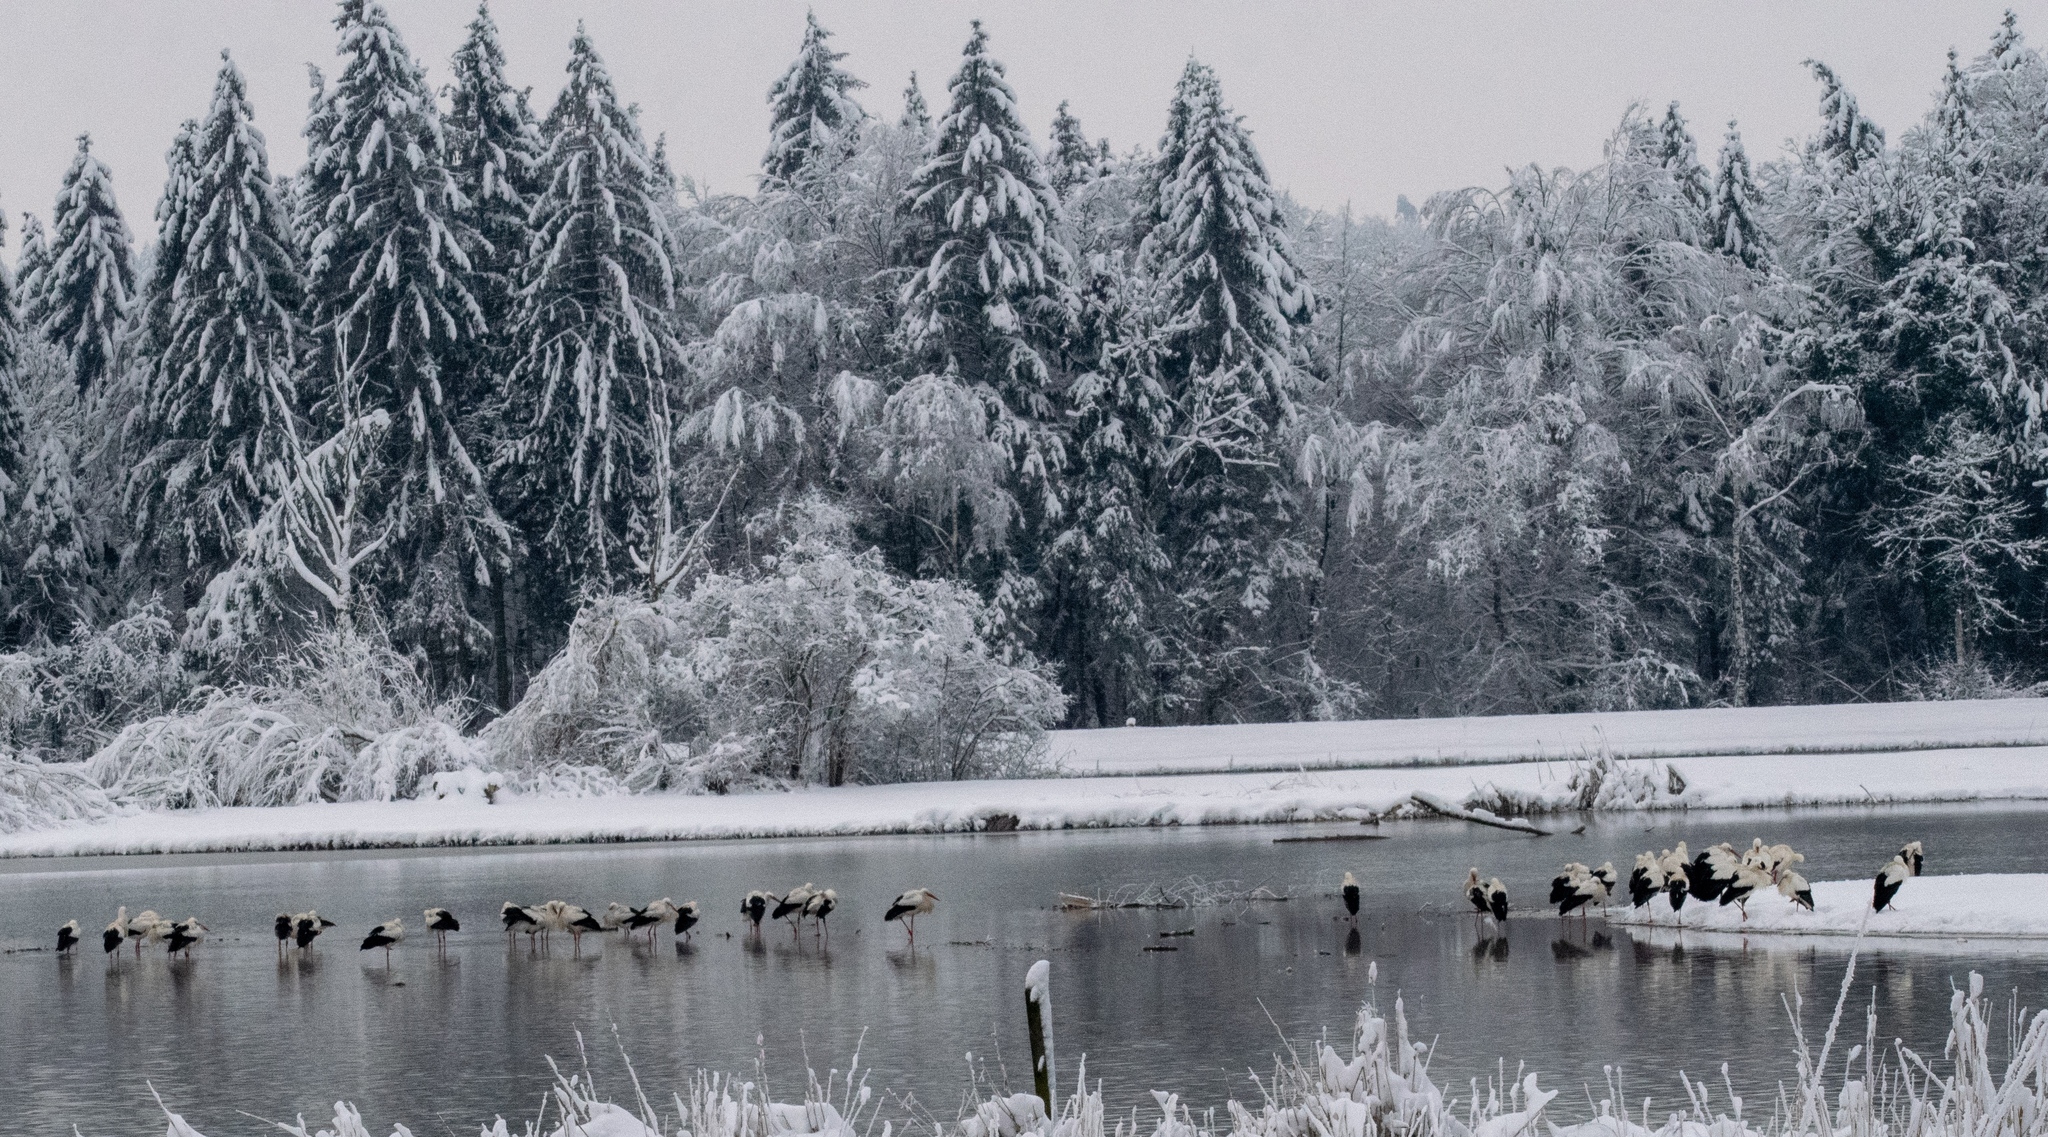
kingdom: Animalia
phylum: Chordata
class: Aves
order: Ciconiiformes
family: Ciconiidae
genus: Ciconia
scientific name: Ciconia ciconia
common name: White stork
